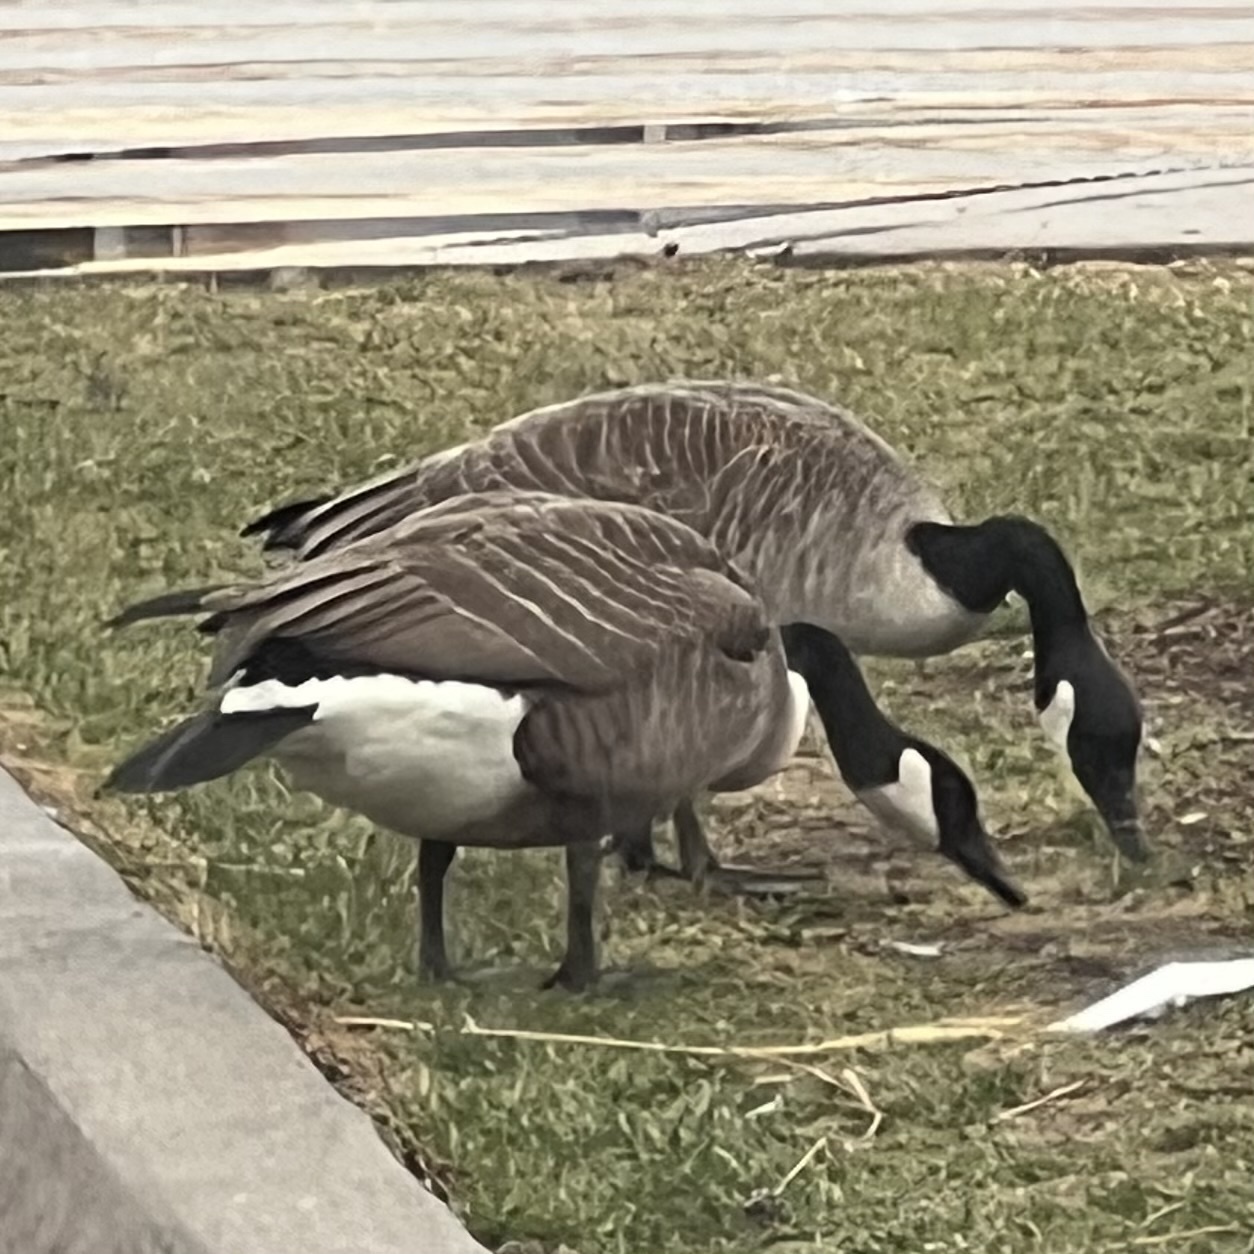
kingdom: Animalia
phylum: Chordata
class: Aves
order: Anseriformes
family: Anatidae
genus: Branta
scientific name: Branta canadensis
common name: Canada goose
